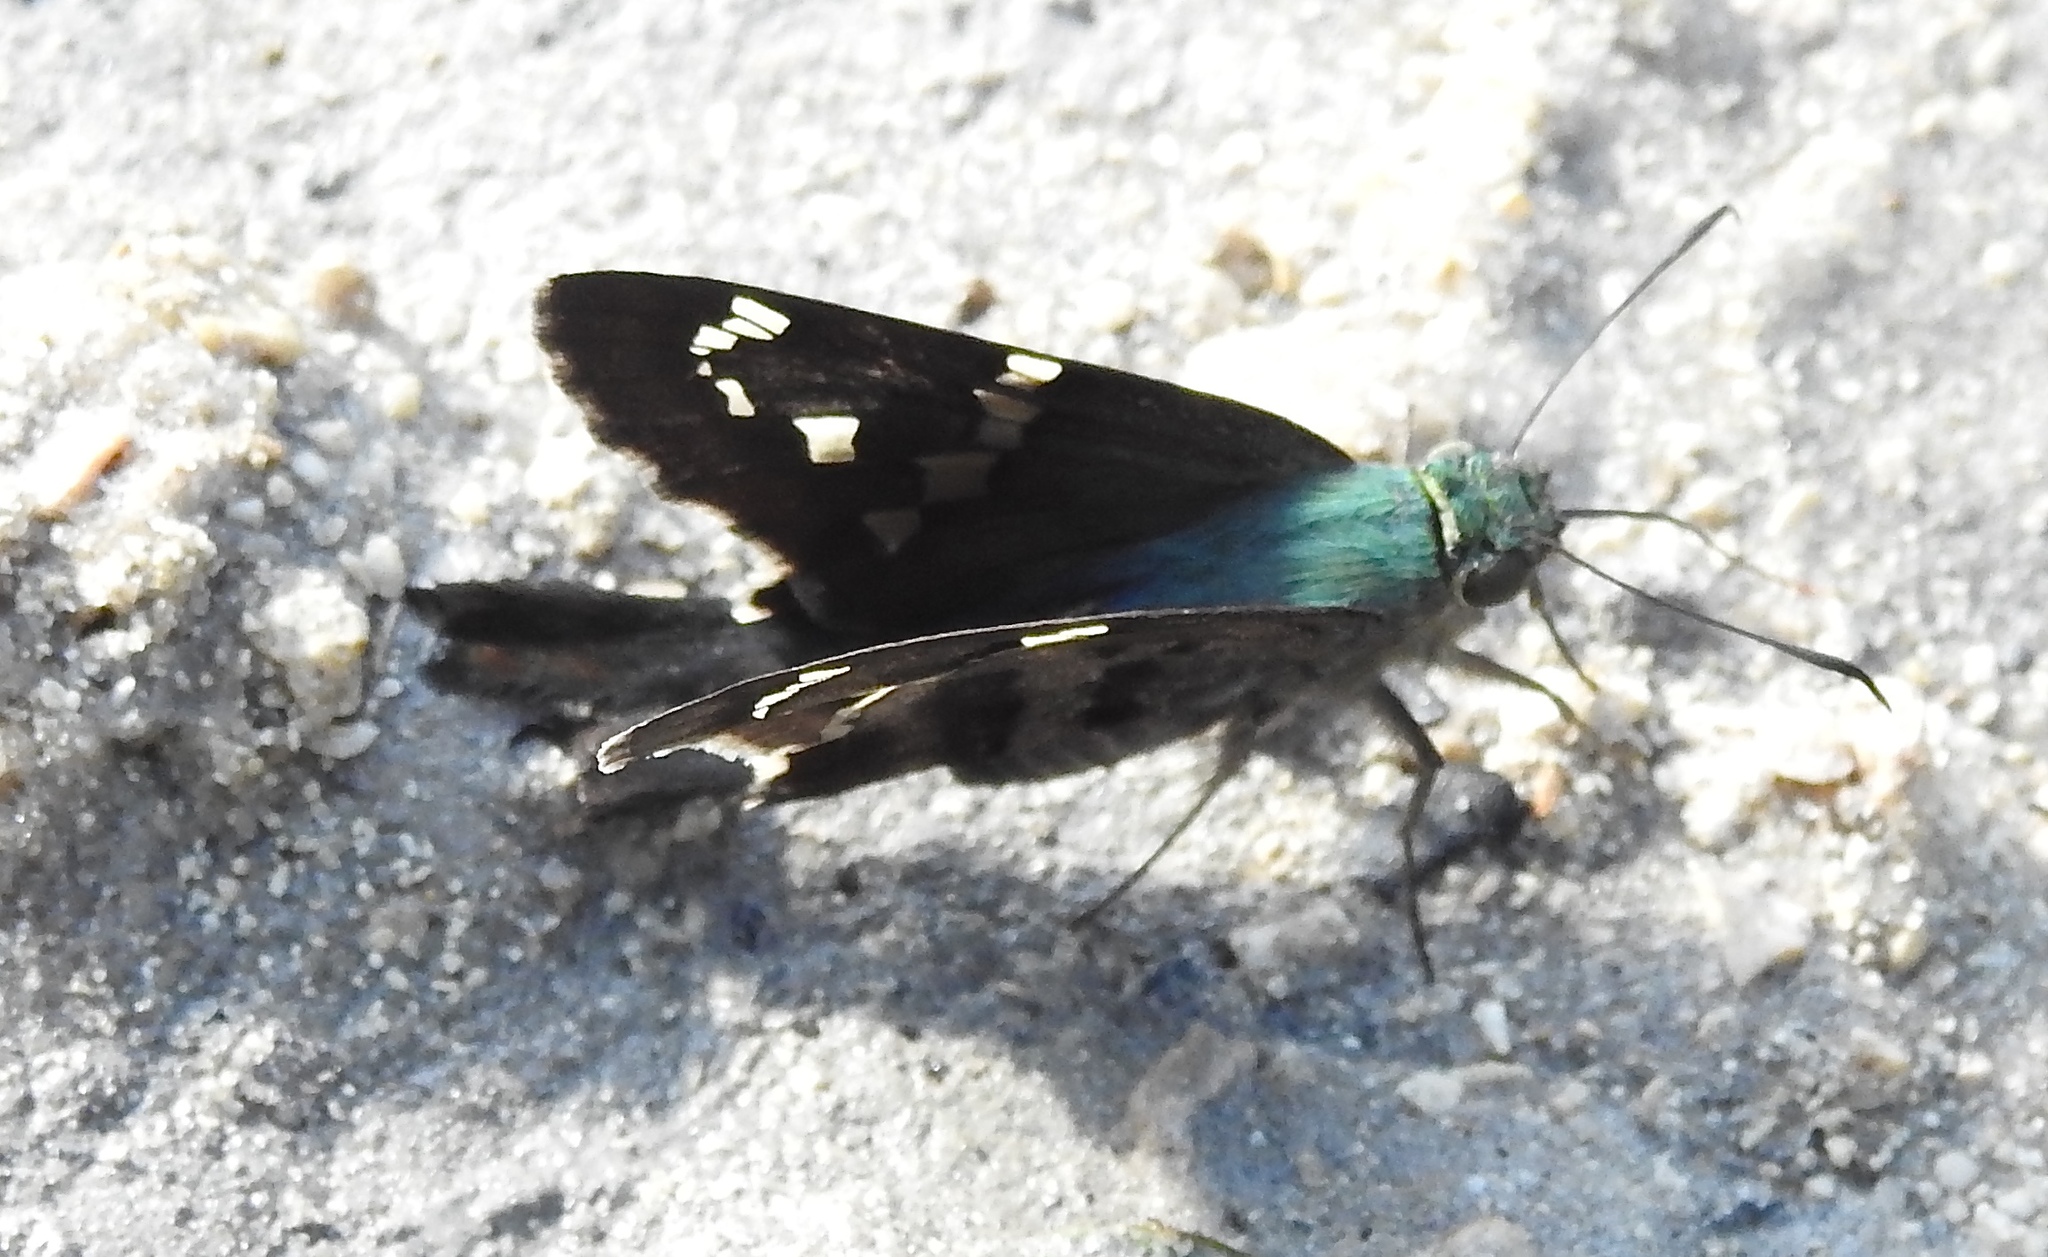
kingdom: Animalia
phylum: Arthropoda
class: Insecta
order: Lepidoptera
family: Hesperiidae
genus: Urbanus
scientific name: Urbanus proteus
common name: Long-tailed skipper
